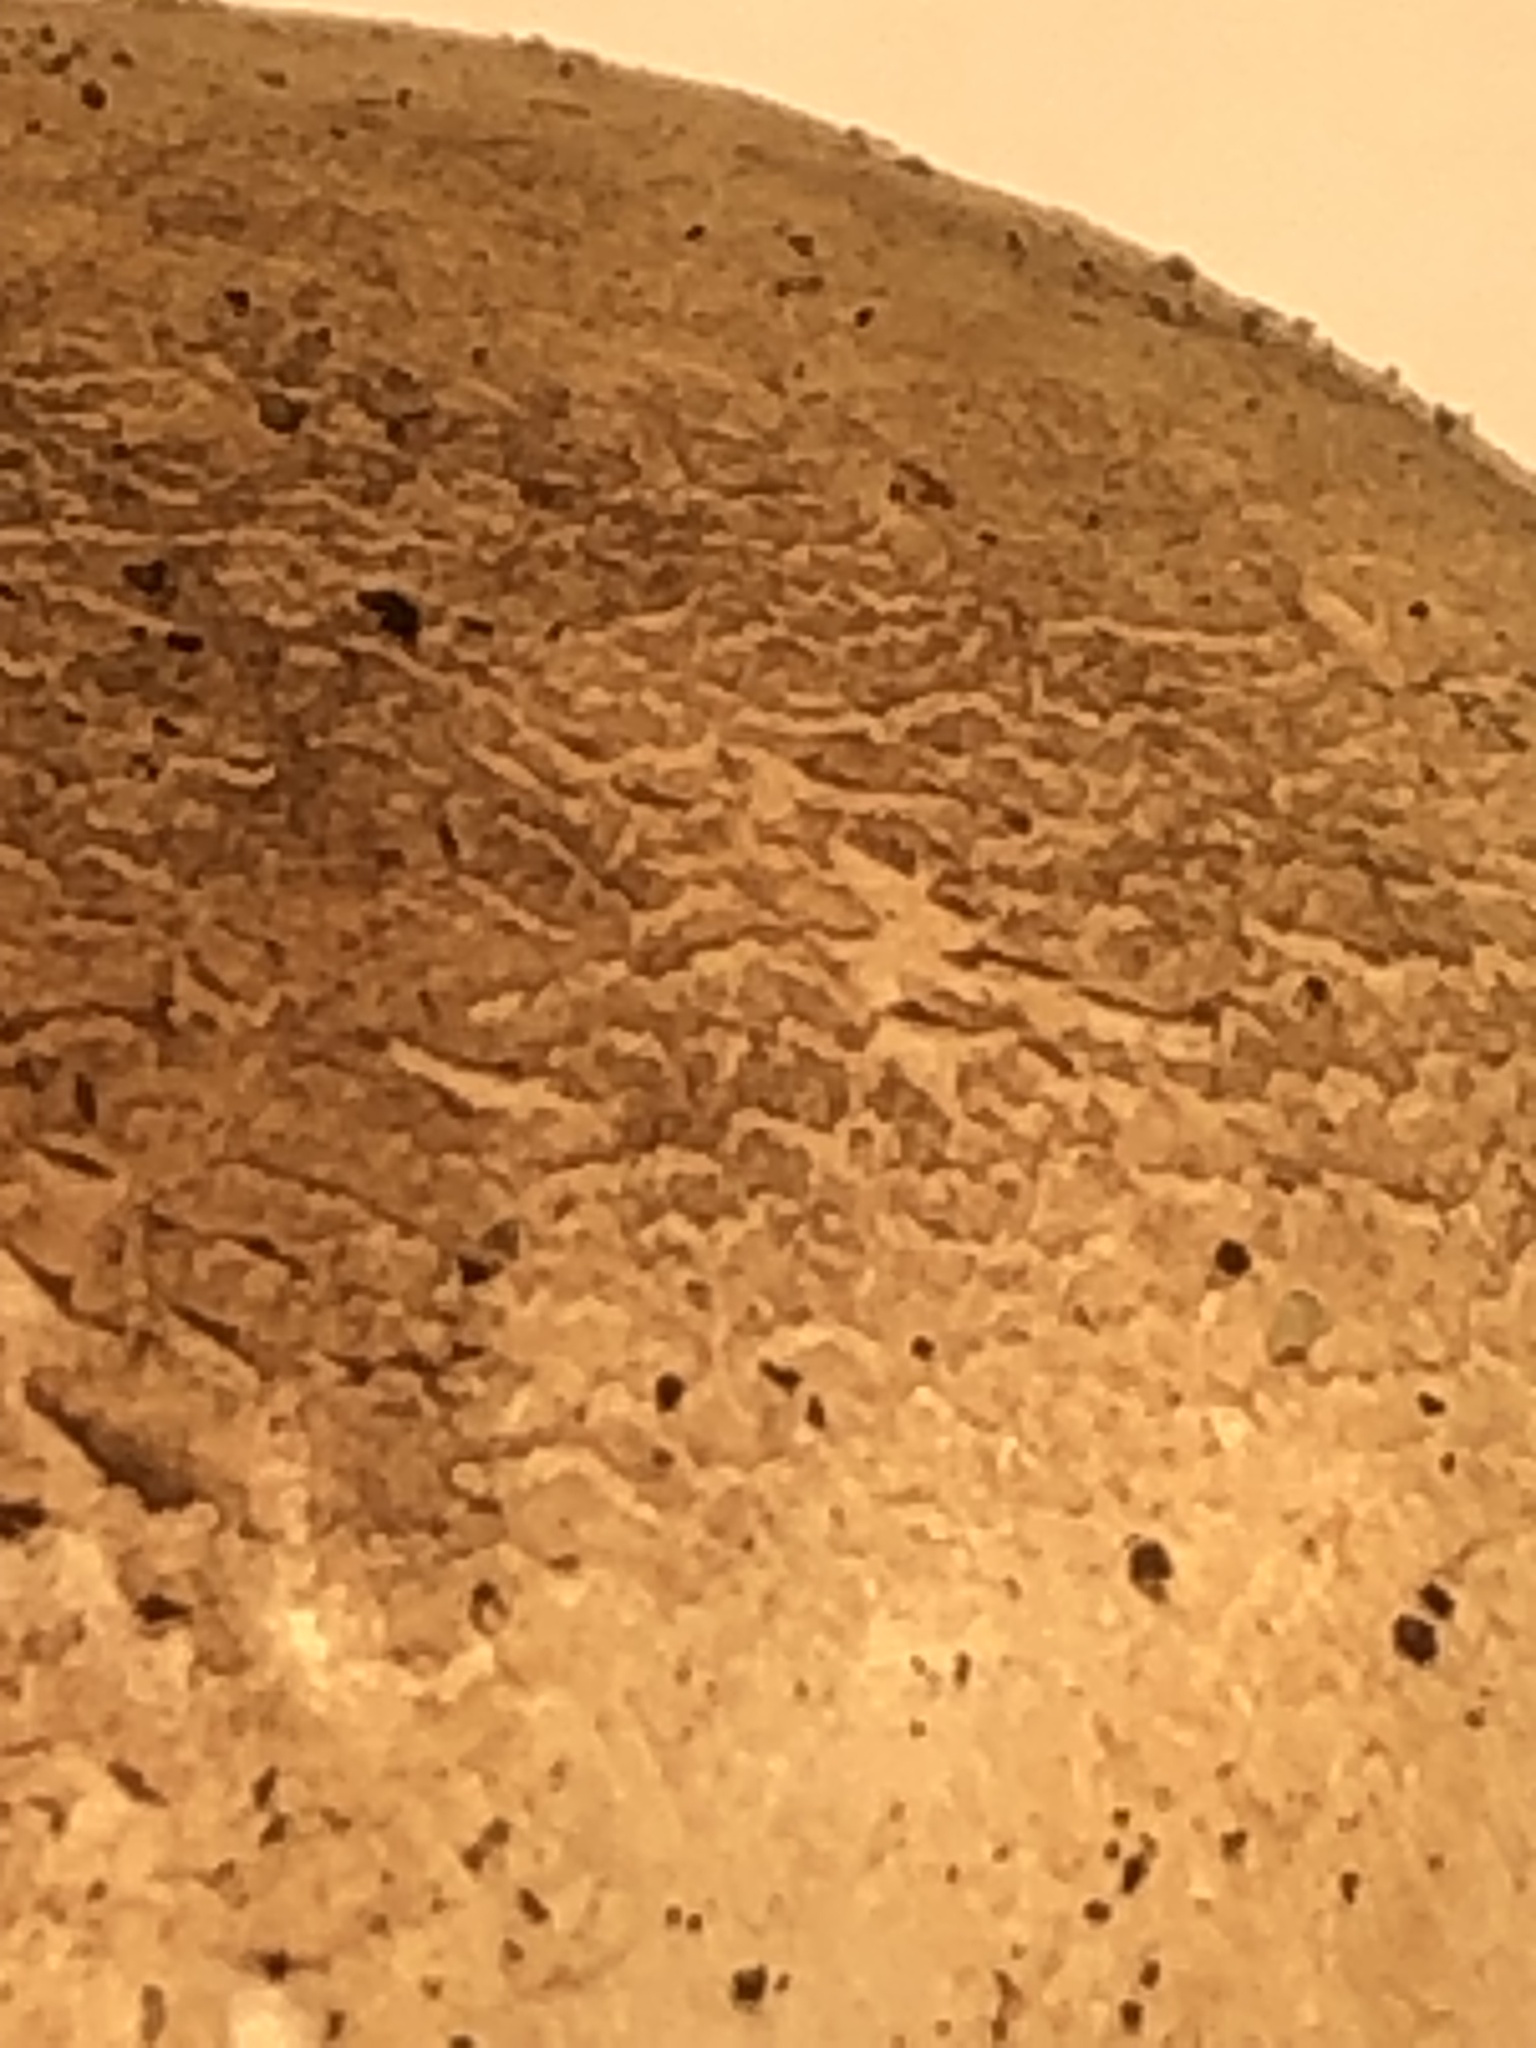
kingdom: Fungi
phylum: Basidiomycota
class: Agaricomycetes
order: Agaricales
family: Agaricaceae
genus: Agaricus
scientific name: Agaricus xanthodermus
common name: Yellow stainer
